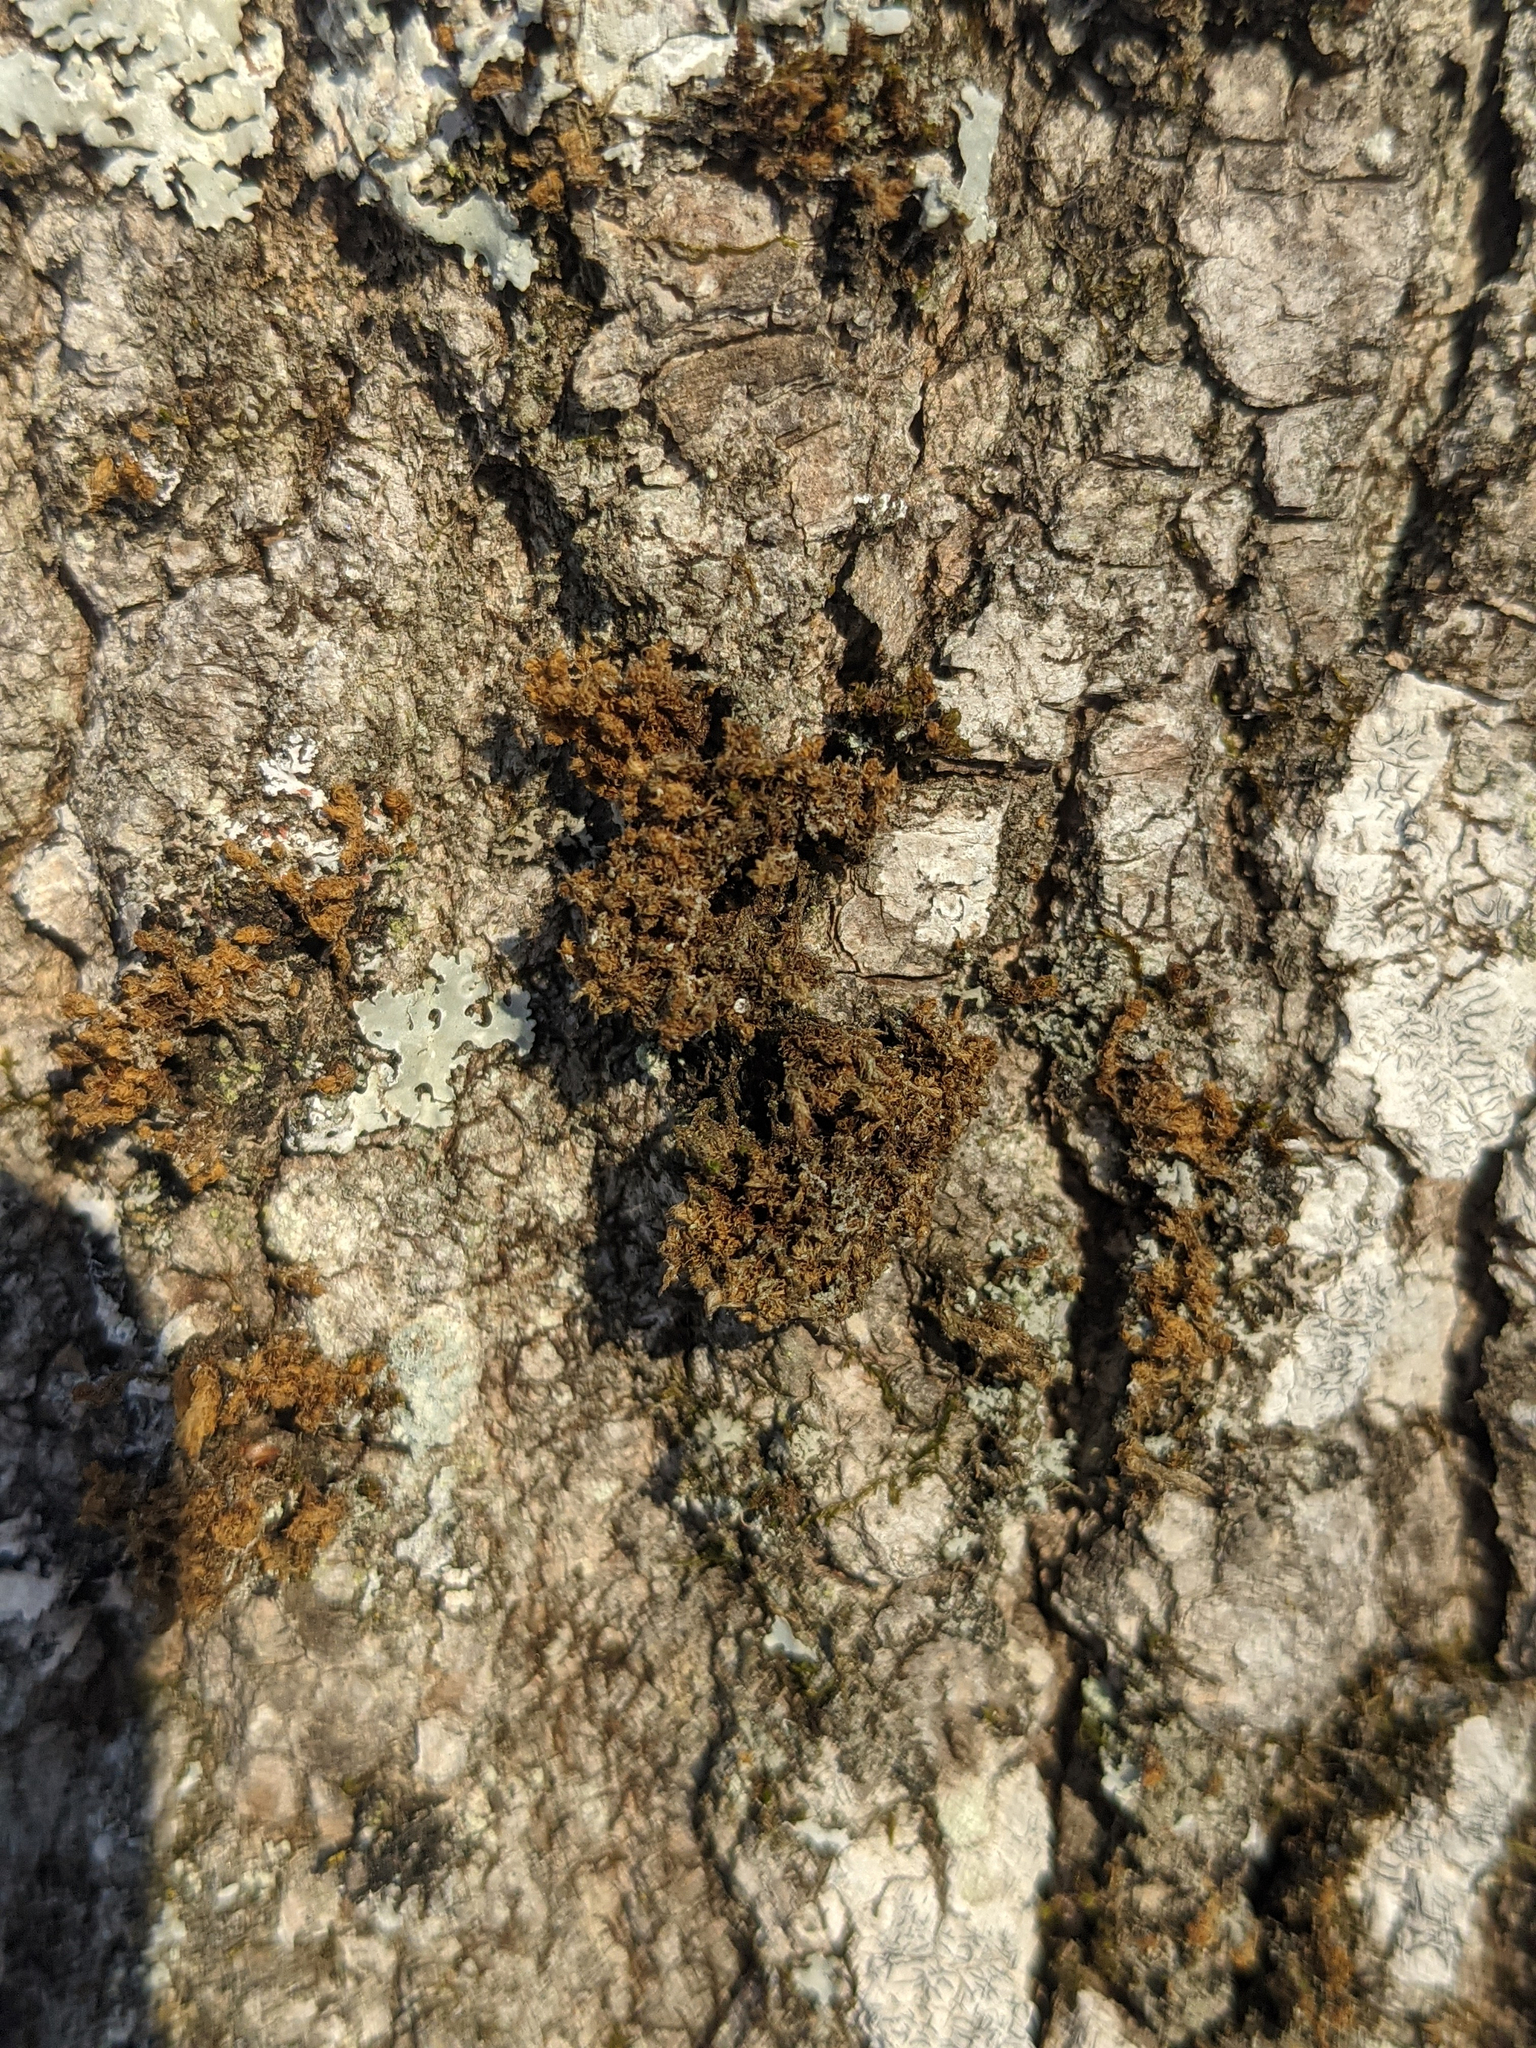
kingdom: Plantae
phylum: Bryophyta
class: Bryopsida
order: Orthotrichales
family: Orthotrichaceae
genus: Ulota
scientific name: Ulota crispa
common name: Crisped pincushion moss
